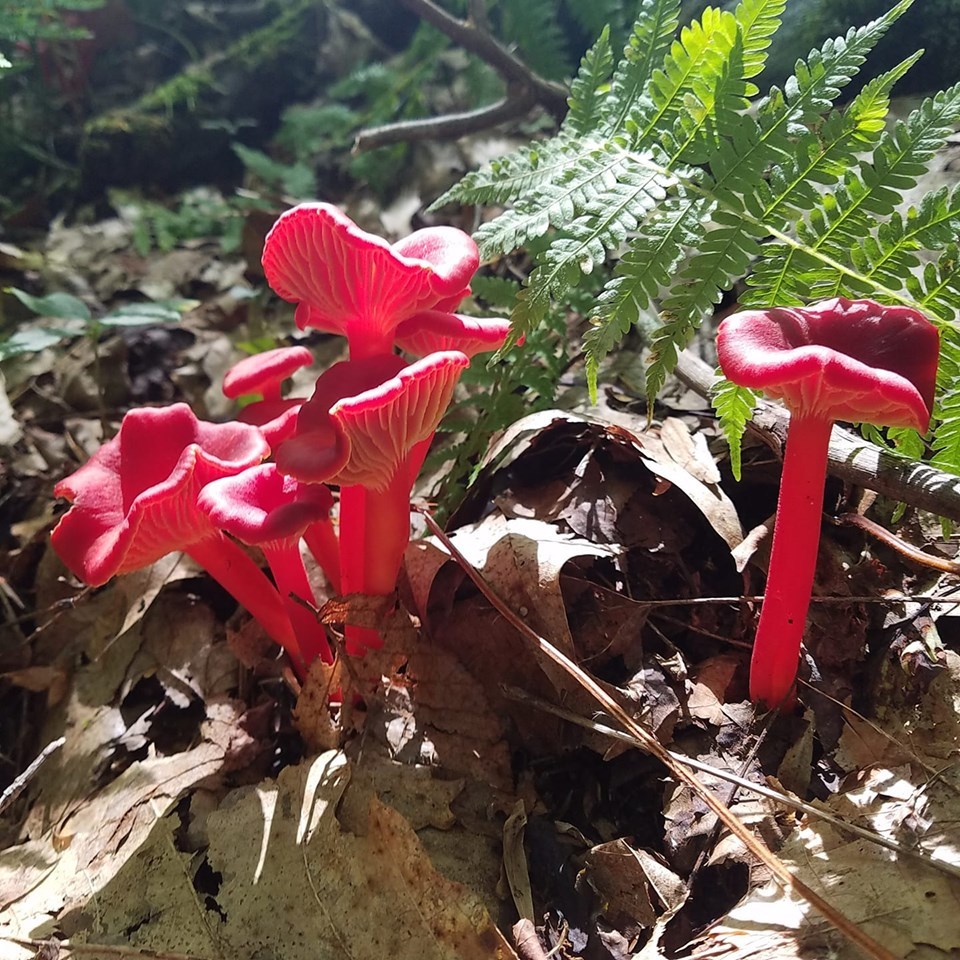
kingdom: Fungi
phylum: Basidiomycota
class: Agaricomycetes
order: Agaricales
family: Hygrophoraceae
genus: Hygrocybe
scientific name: Hygrocybe appalachianensis
